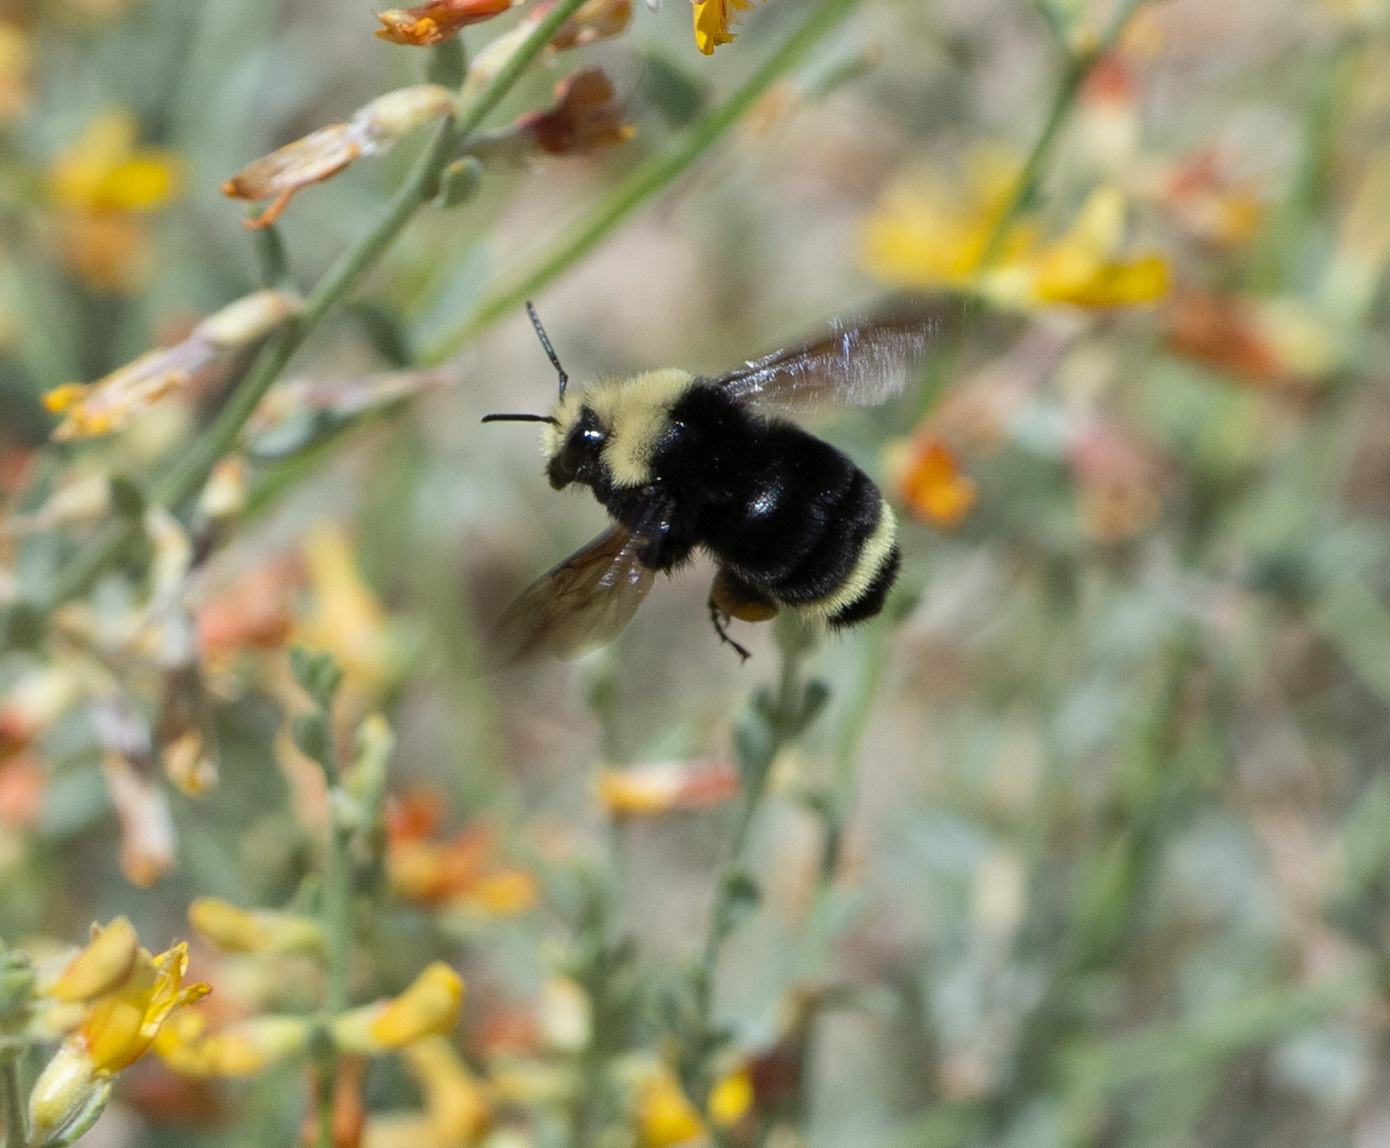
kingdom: Animalia
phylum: Arthropoda
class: Insecta
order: Hymenoptera
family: Apidae
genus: Bombus
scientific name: Bombus vosnesenskii
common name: Vosnesensky bumble bee
